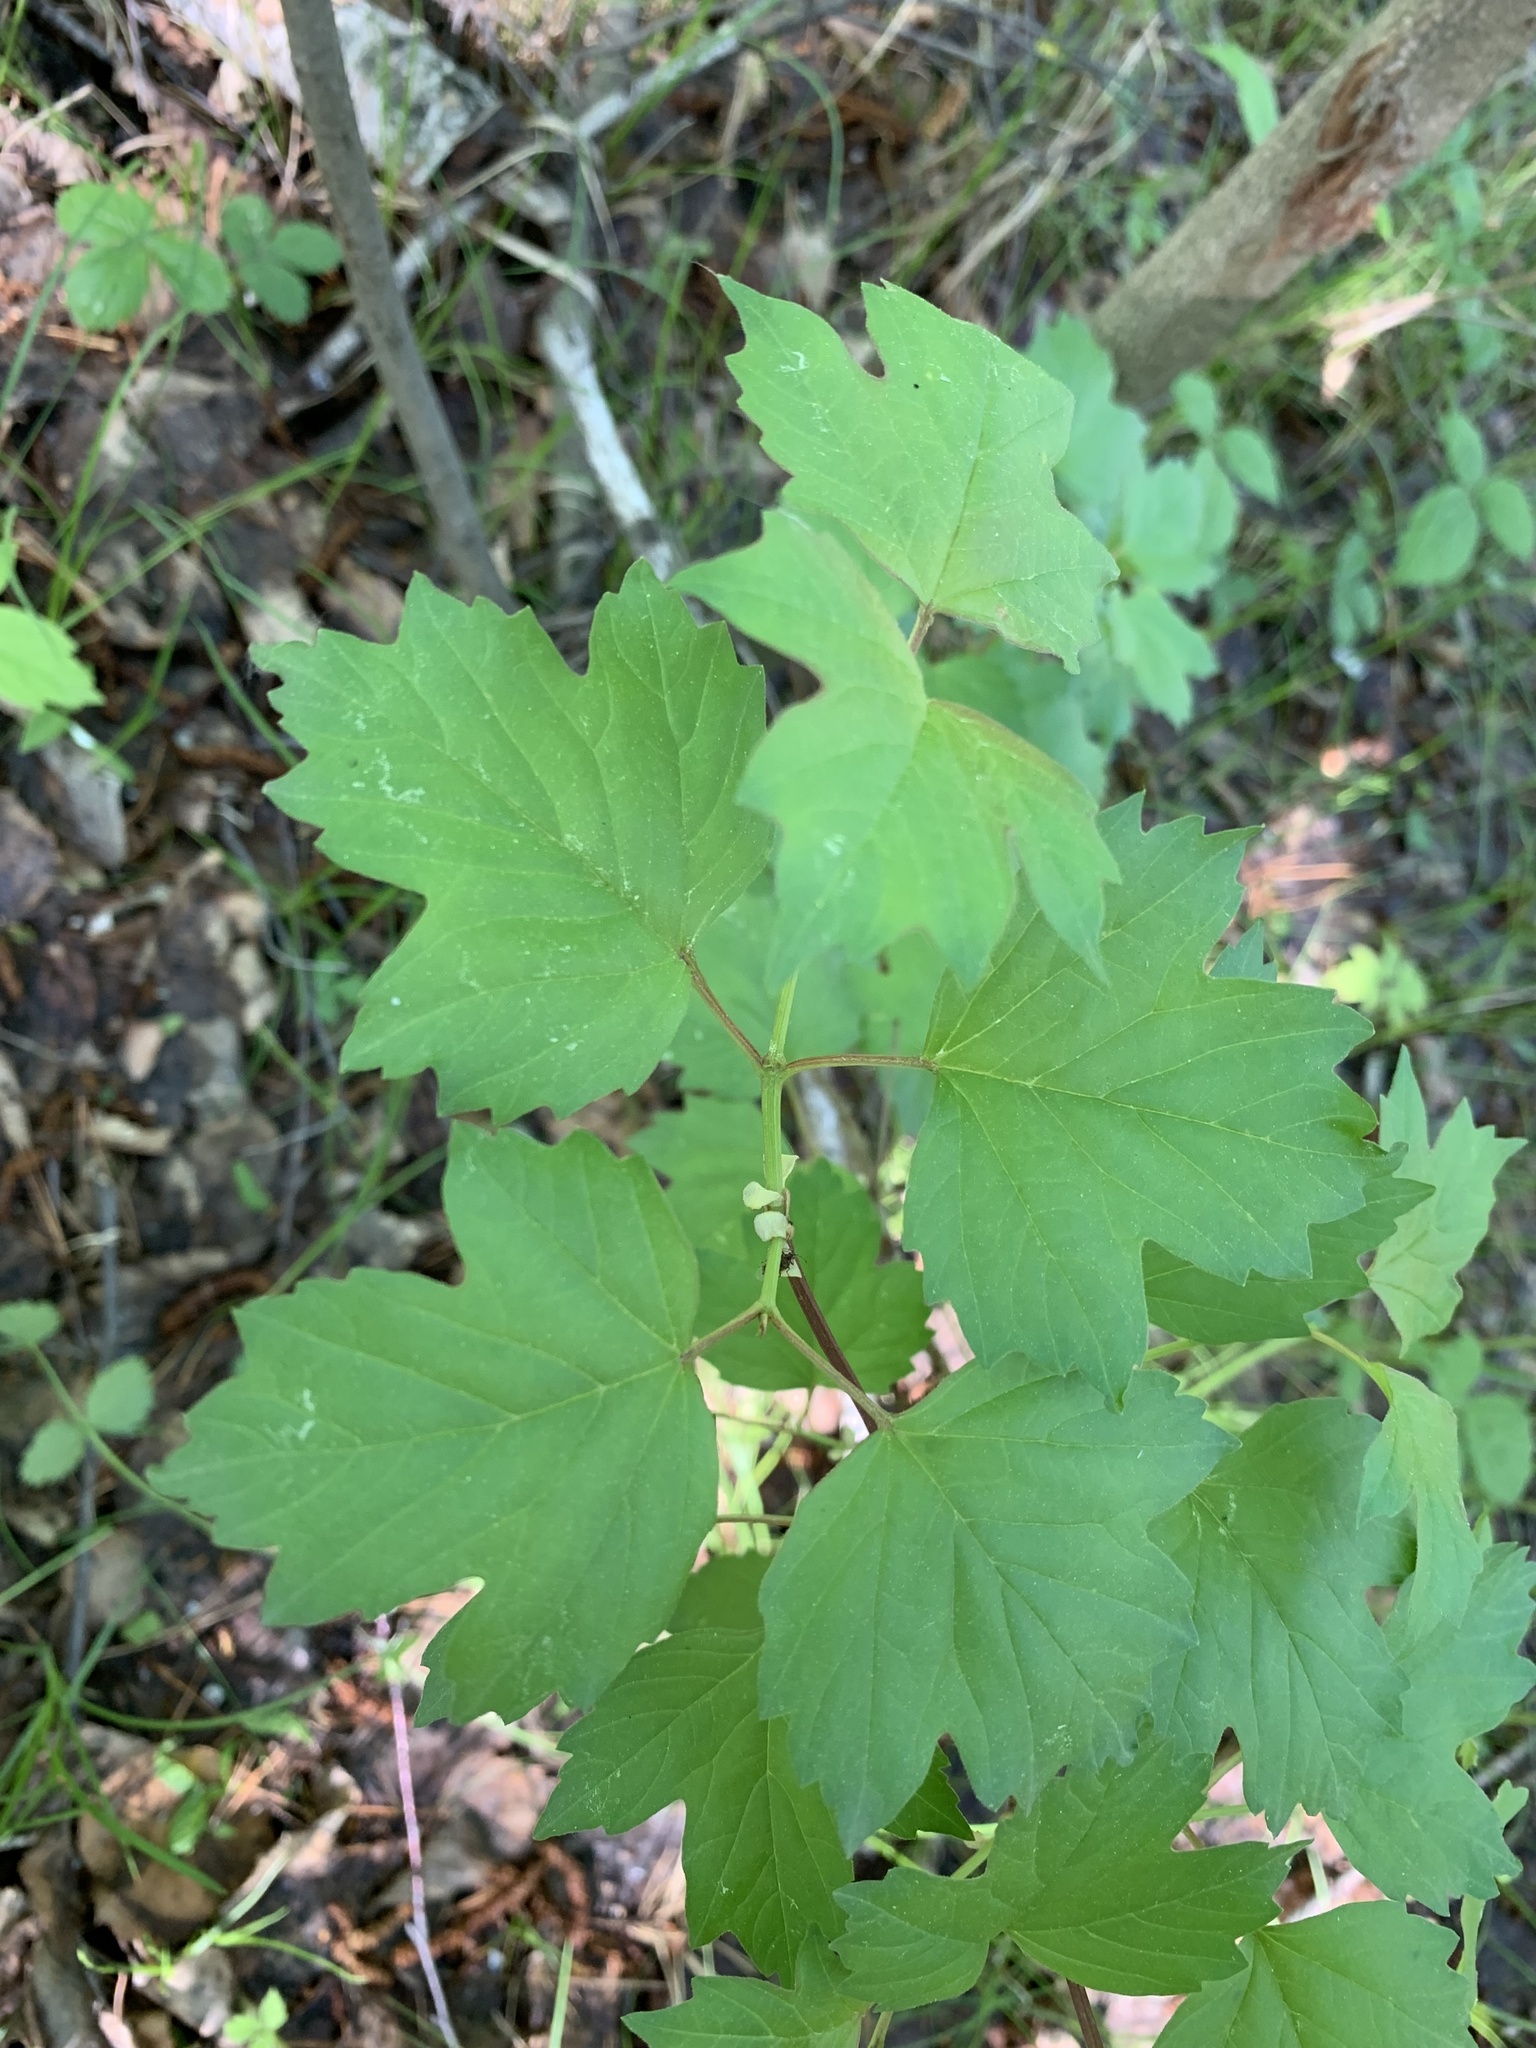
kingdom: Plantae
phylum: Tracheophyta
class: Magnoliopsida
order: Dipsacales
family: Viburnaceae
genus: Viburnum
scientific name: Viburnum opulus
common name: Guelder-rose
